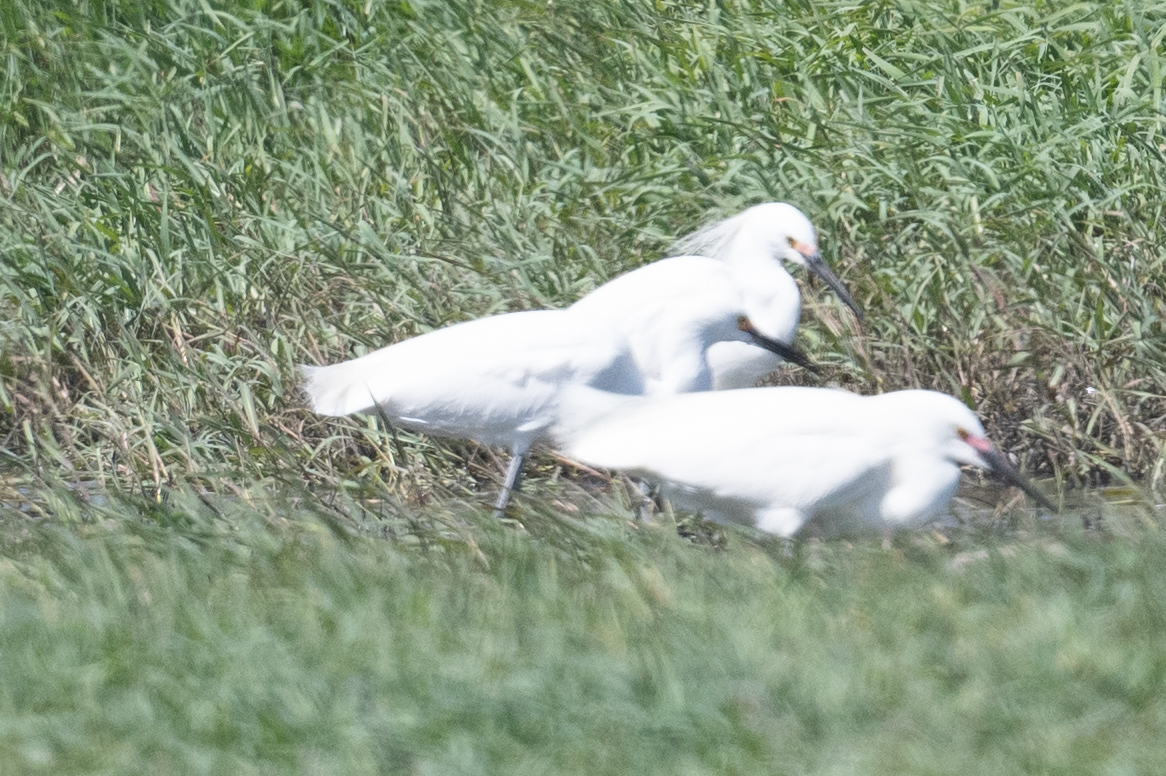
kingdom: Animalia
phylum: Chordata
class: Aves
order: Pelecaniformes
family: Ardeidae
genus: Egretta
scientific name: Egretta thula
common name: Snowy egret
